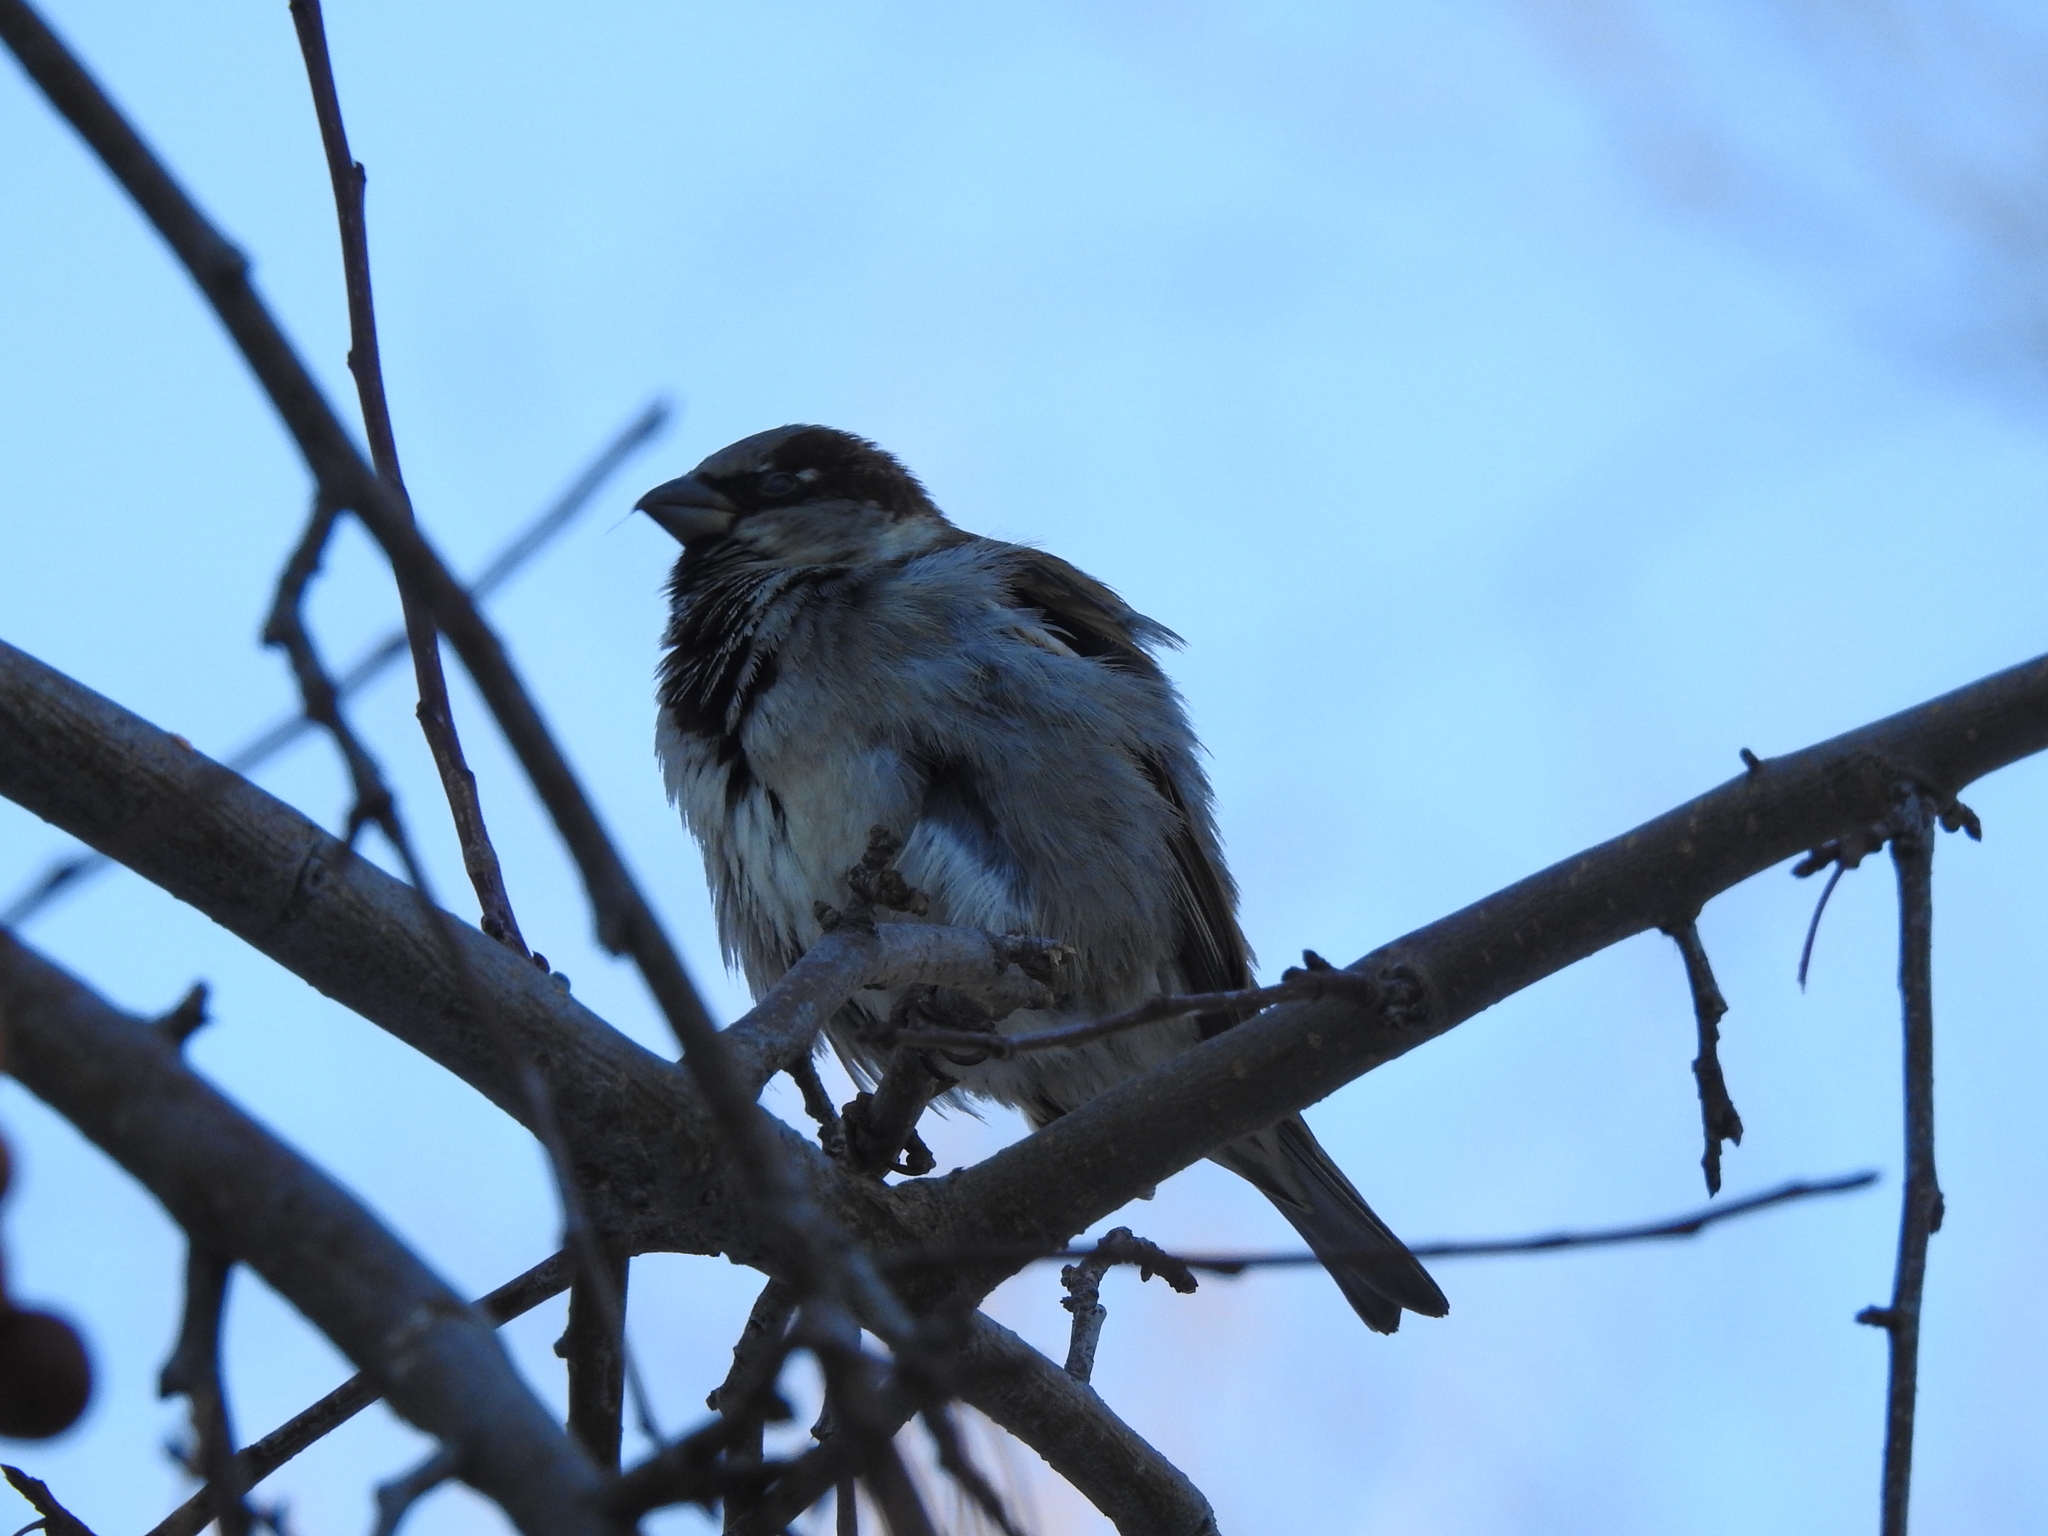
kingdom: Animalia
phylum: Chordata
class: Aves
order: Passeriformes
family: Passeridae
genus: Passer
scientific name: Passer domesticus
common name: House sparrow
